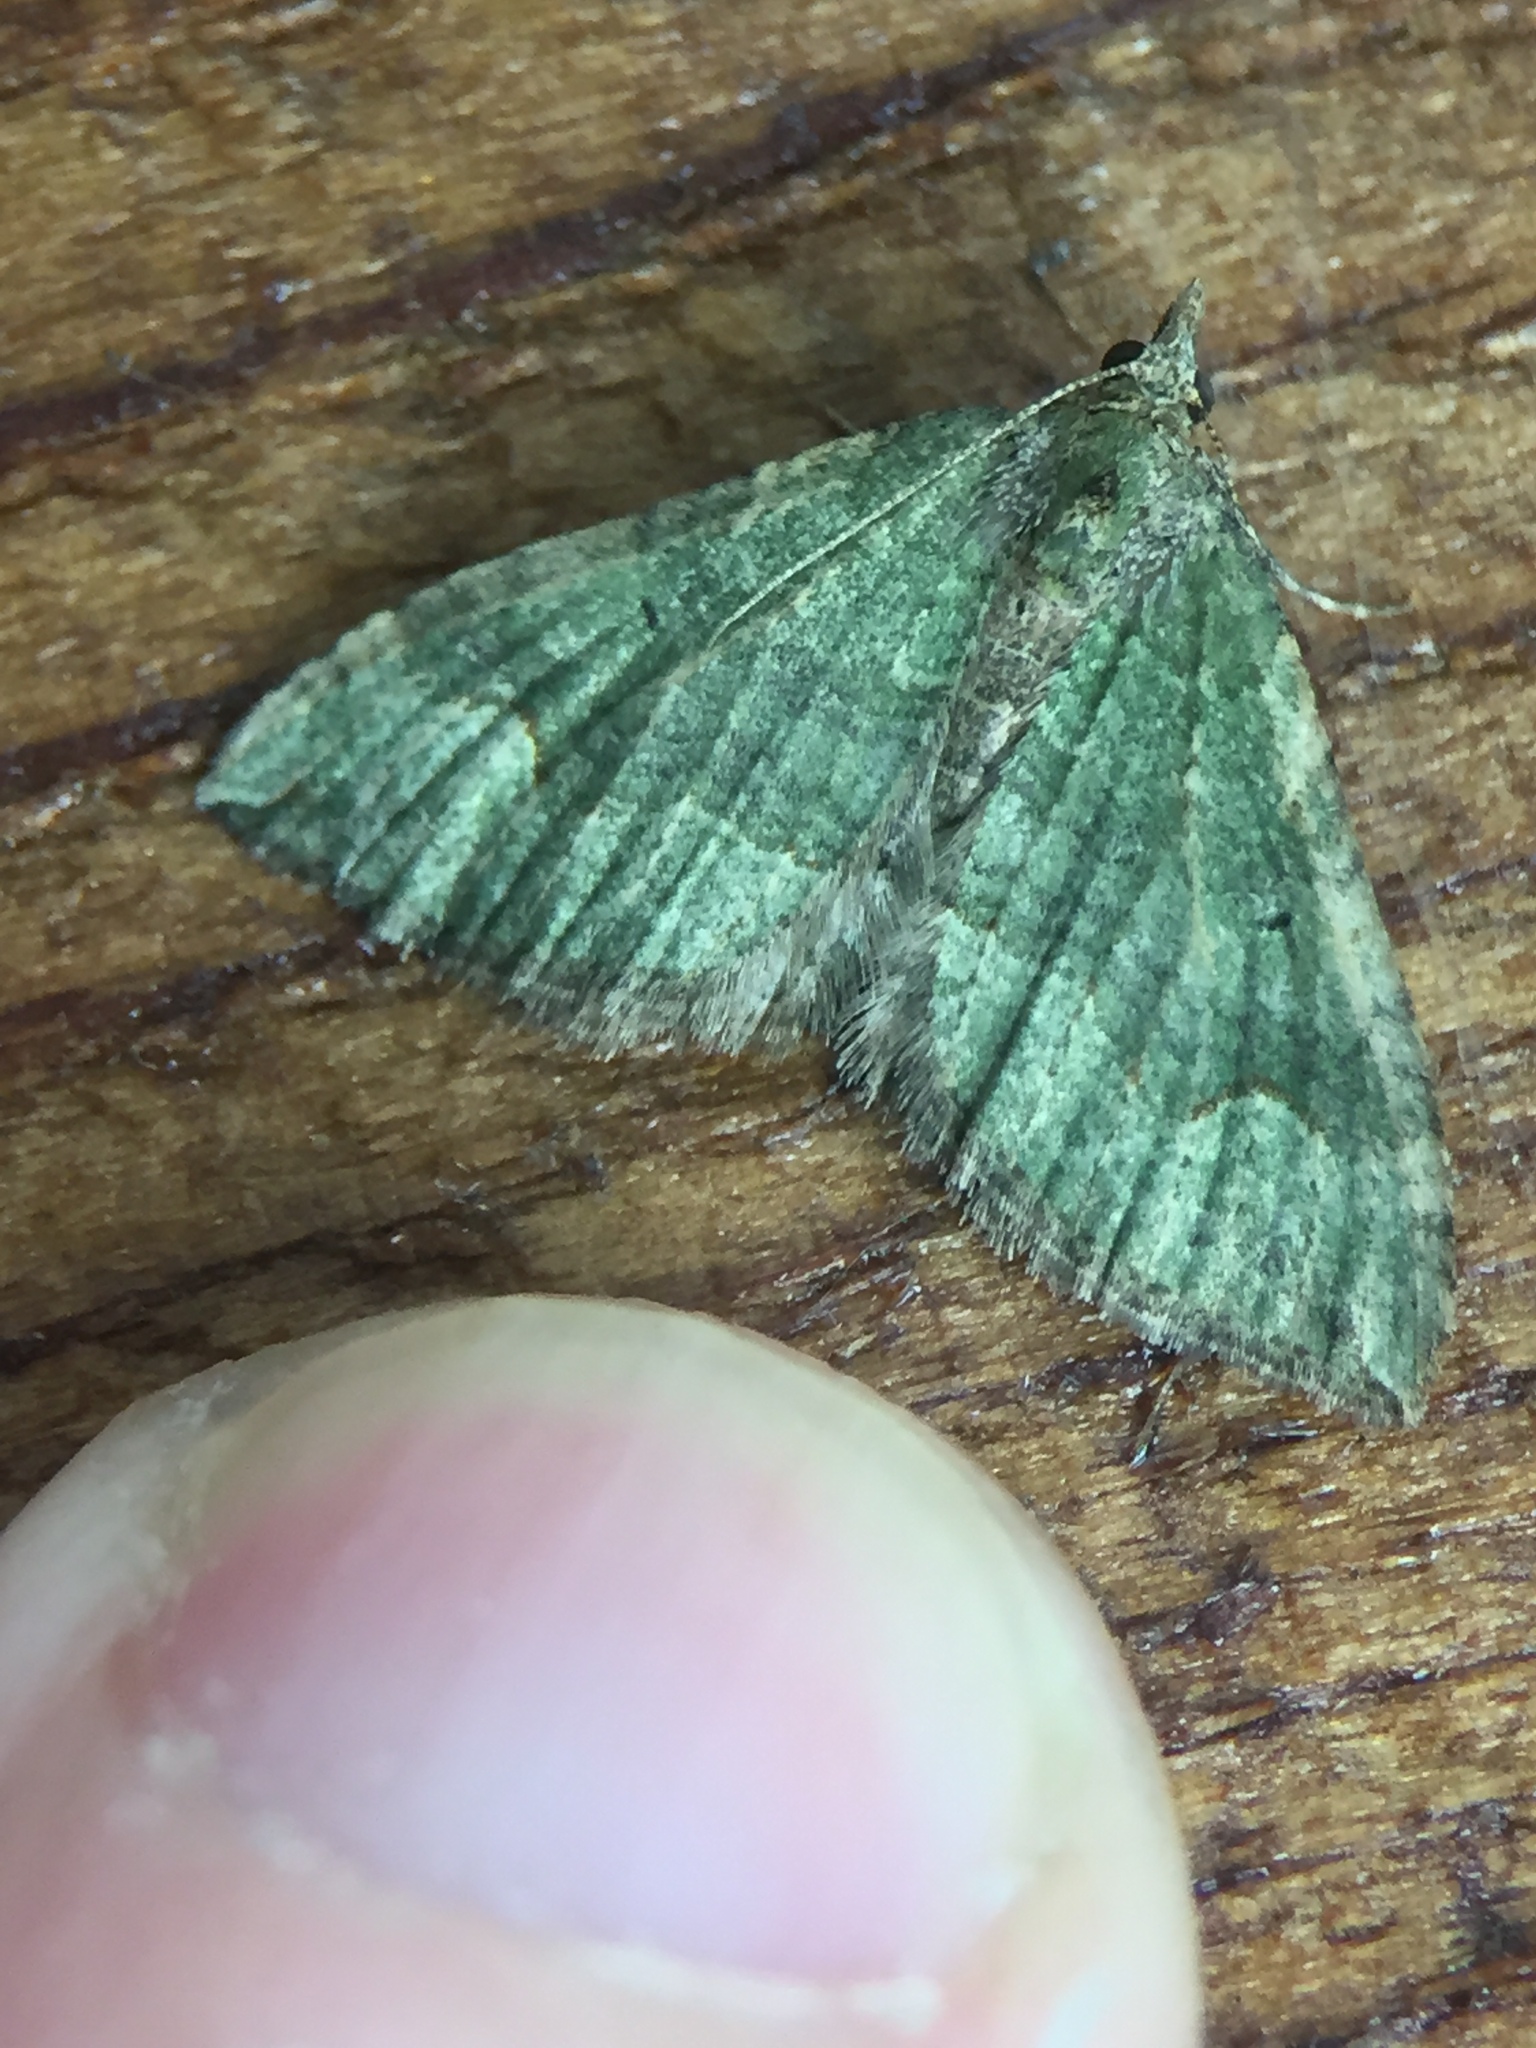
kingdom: Animalia
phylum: Arthropoda
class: Insecta
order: Lepidoptera
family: Geometridae
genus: Epyaxa
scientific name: Epyaxa rosearia
